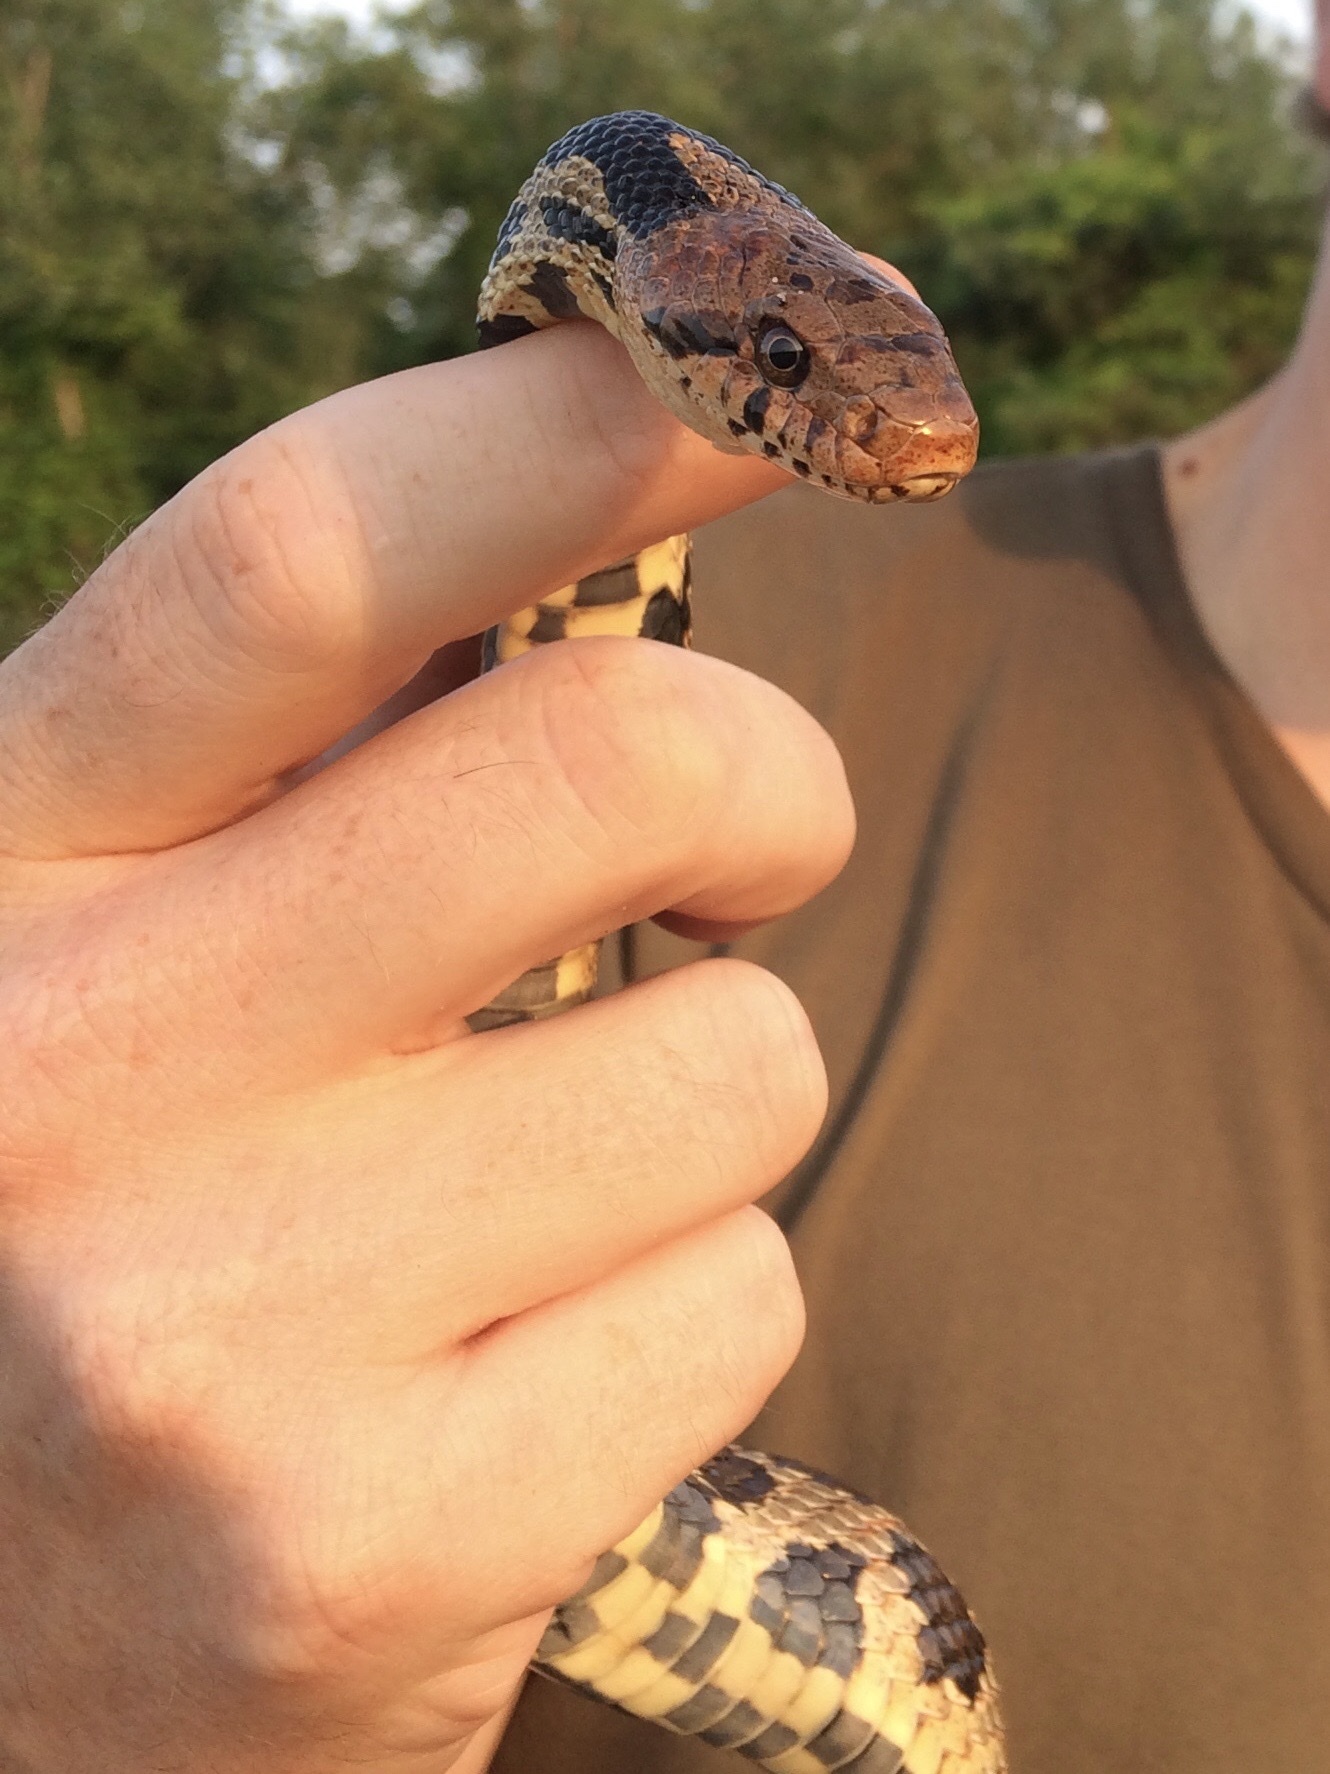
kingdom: Animalia
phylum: Chordata
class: Squamata
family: Colubridae
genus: Pantherophis
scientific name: Pantherophis vulpinus
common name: Eastern fox snake
